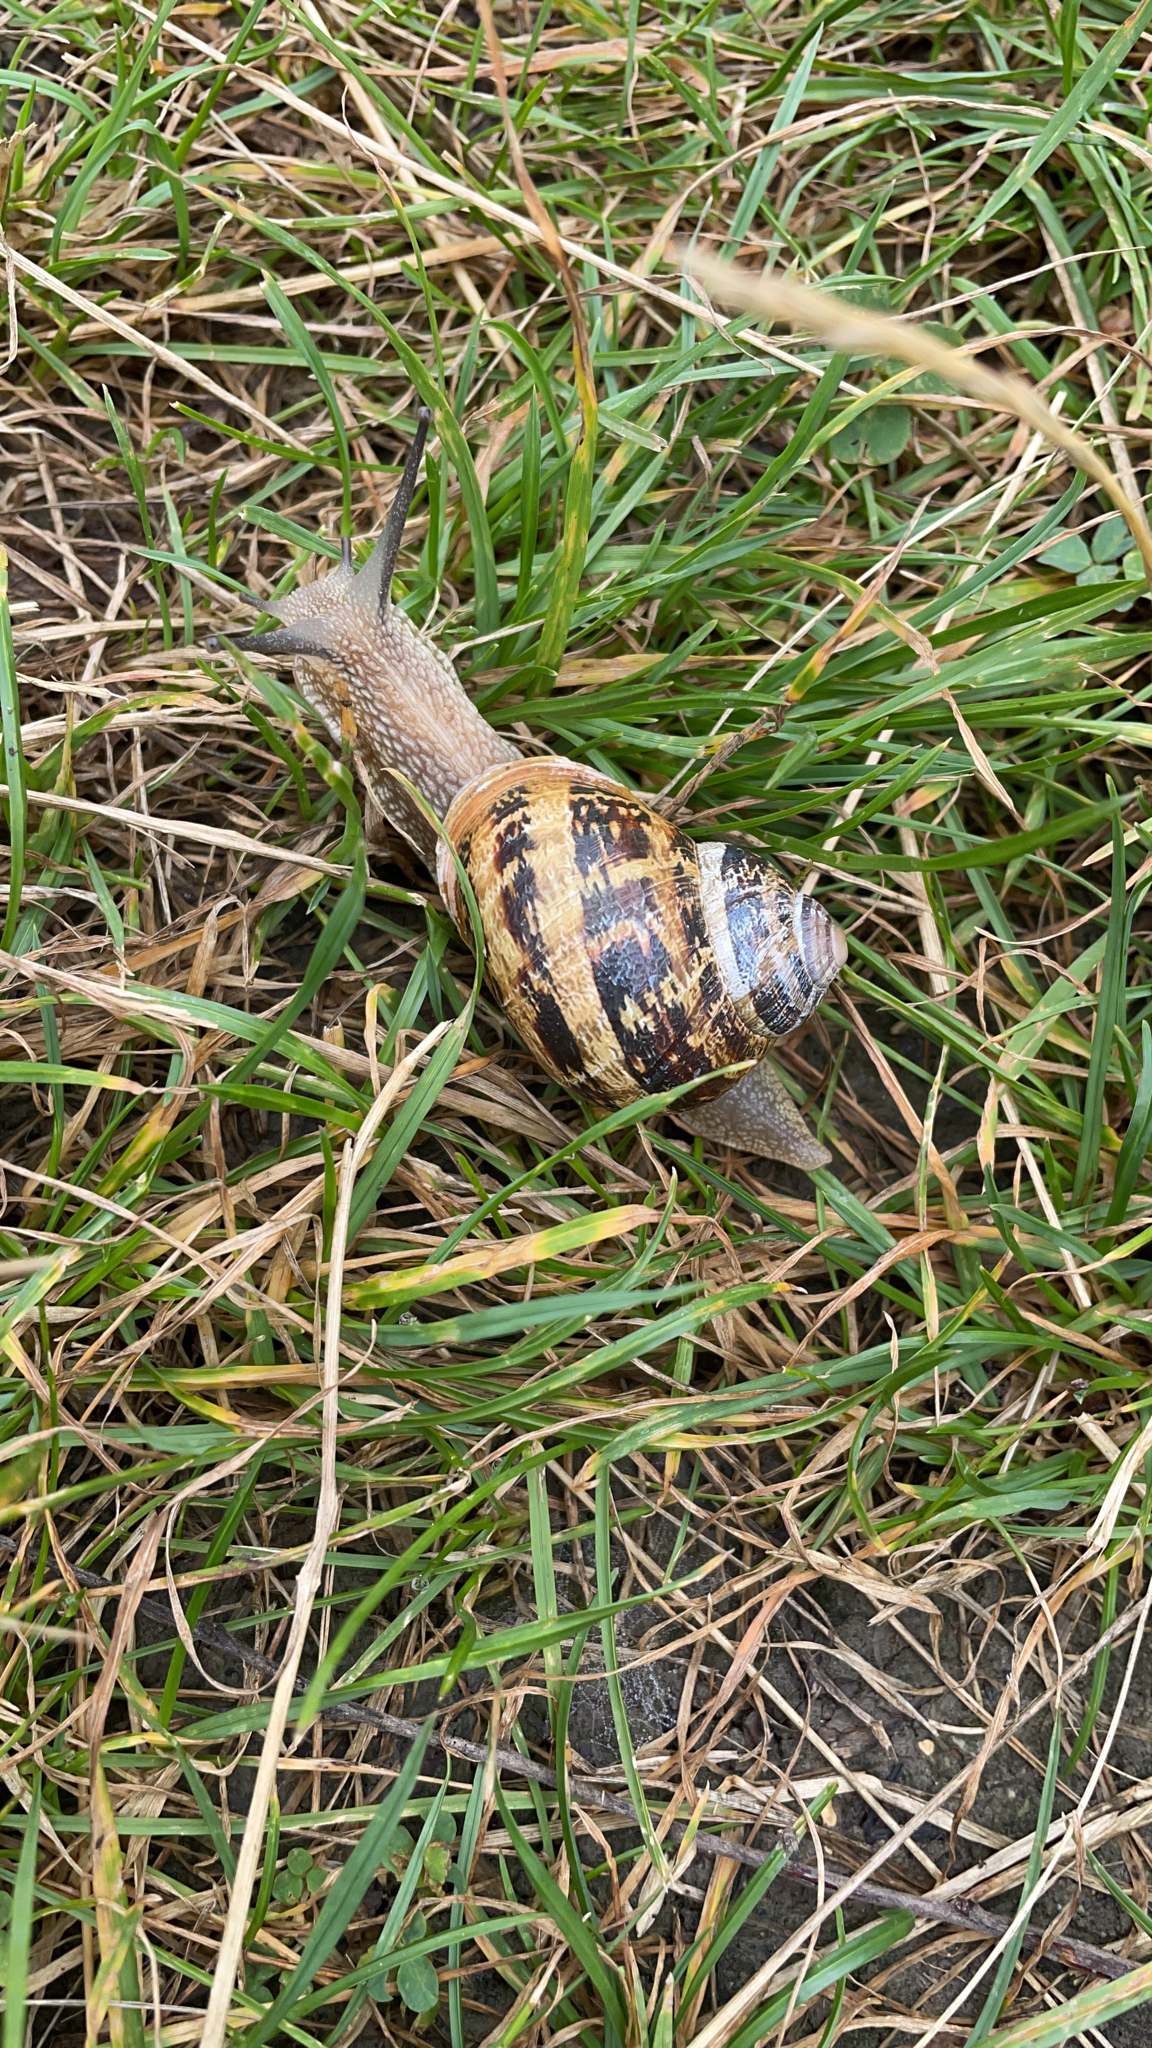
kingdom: Animalia
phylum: Mollusca
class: Gastropoda
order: Stylommatophora
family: Helicidae
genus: Cornu
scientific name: Cornu aspersum
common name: Brown garden snail
